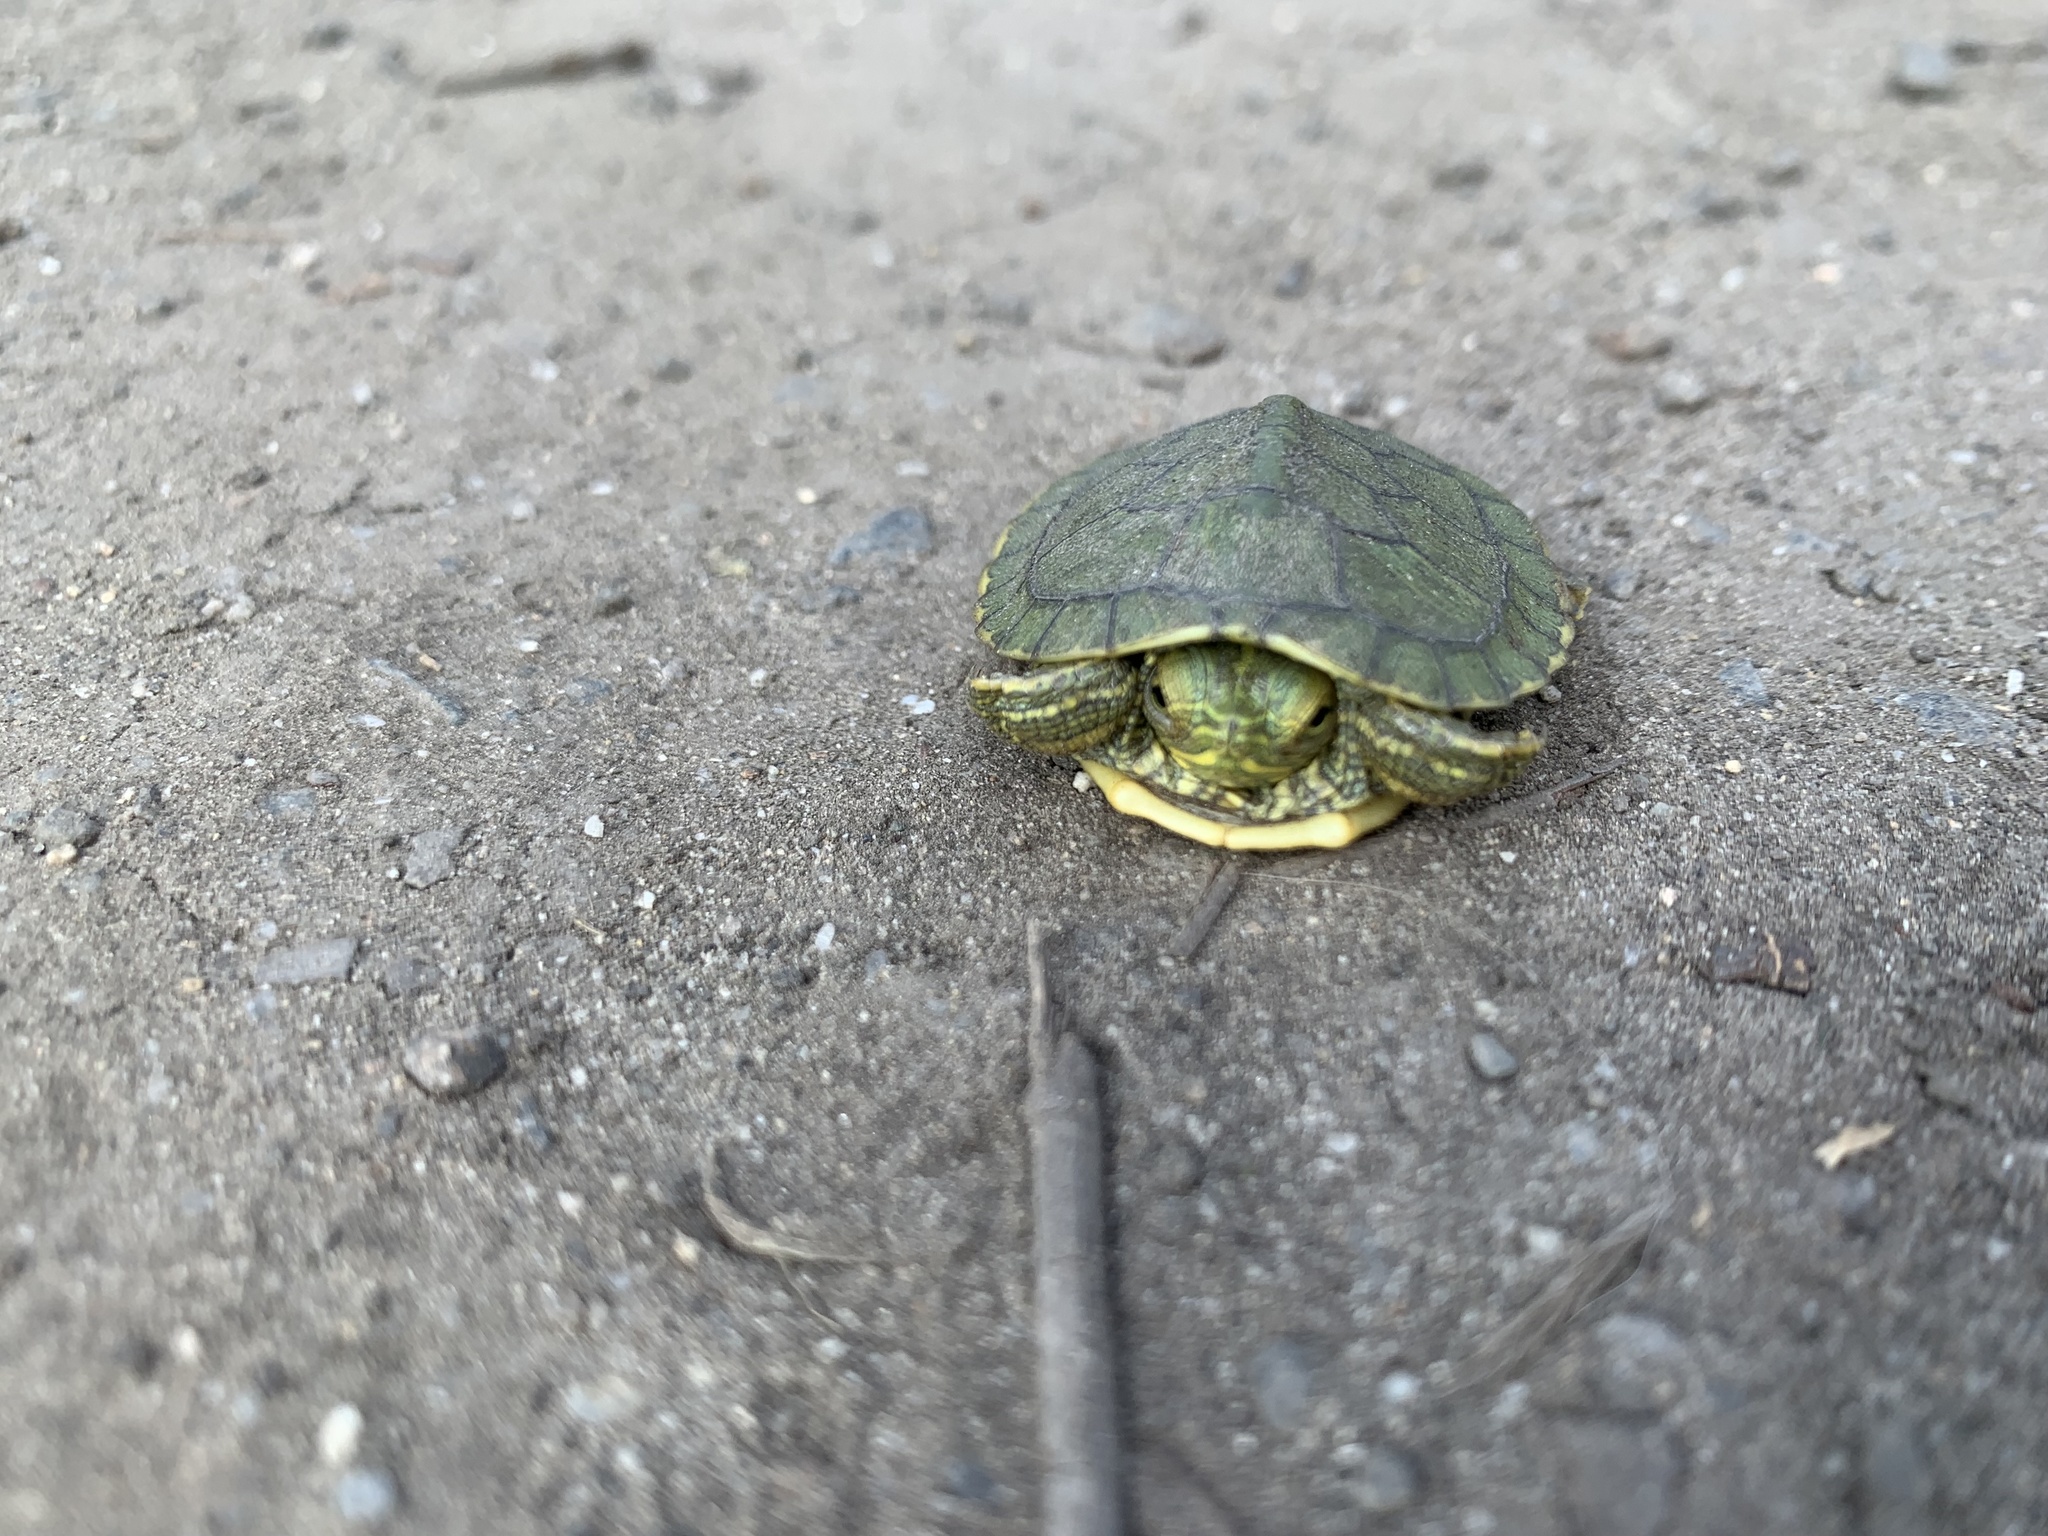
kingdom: Animalia
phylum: Chordata
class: Testudines
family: Emydidae
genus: Trachemys
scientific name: Trachemys scripta
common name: Slider
